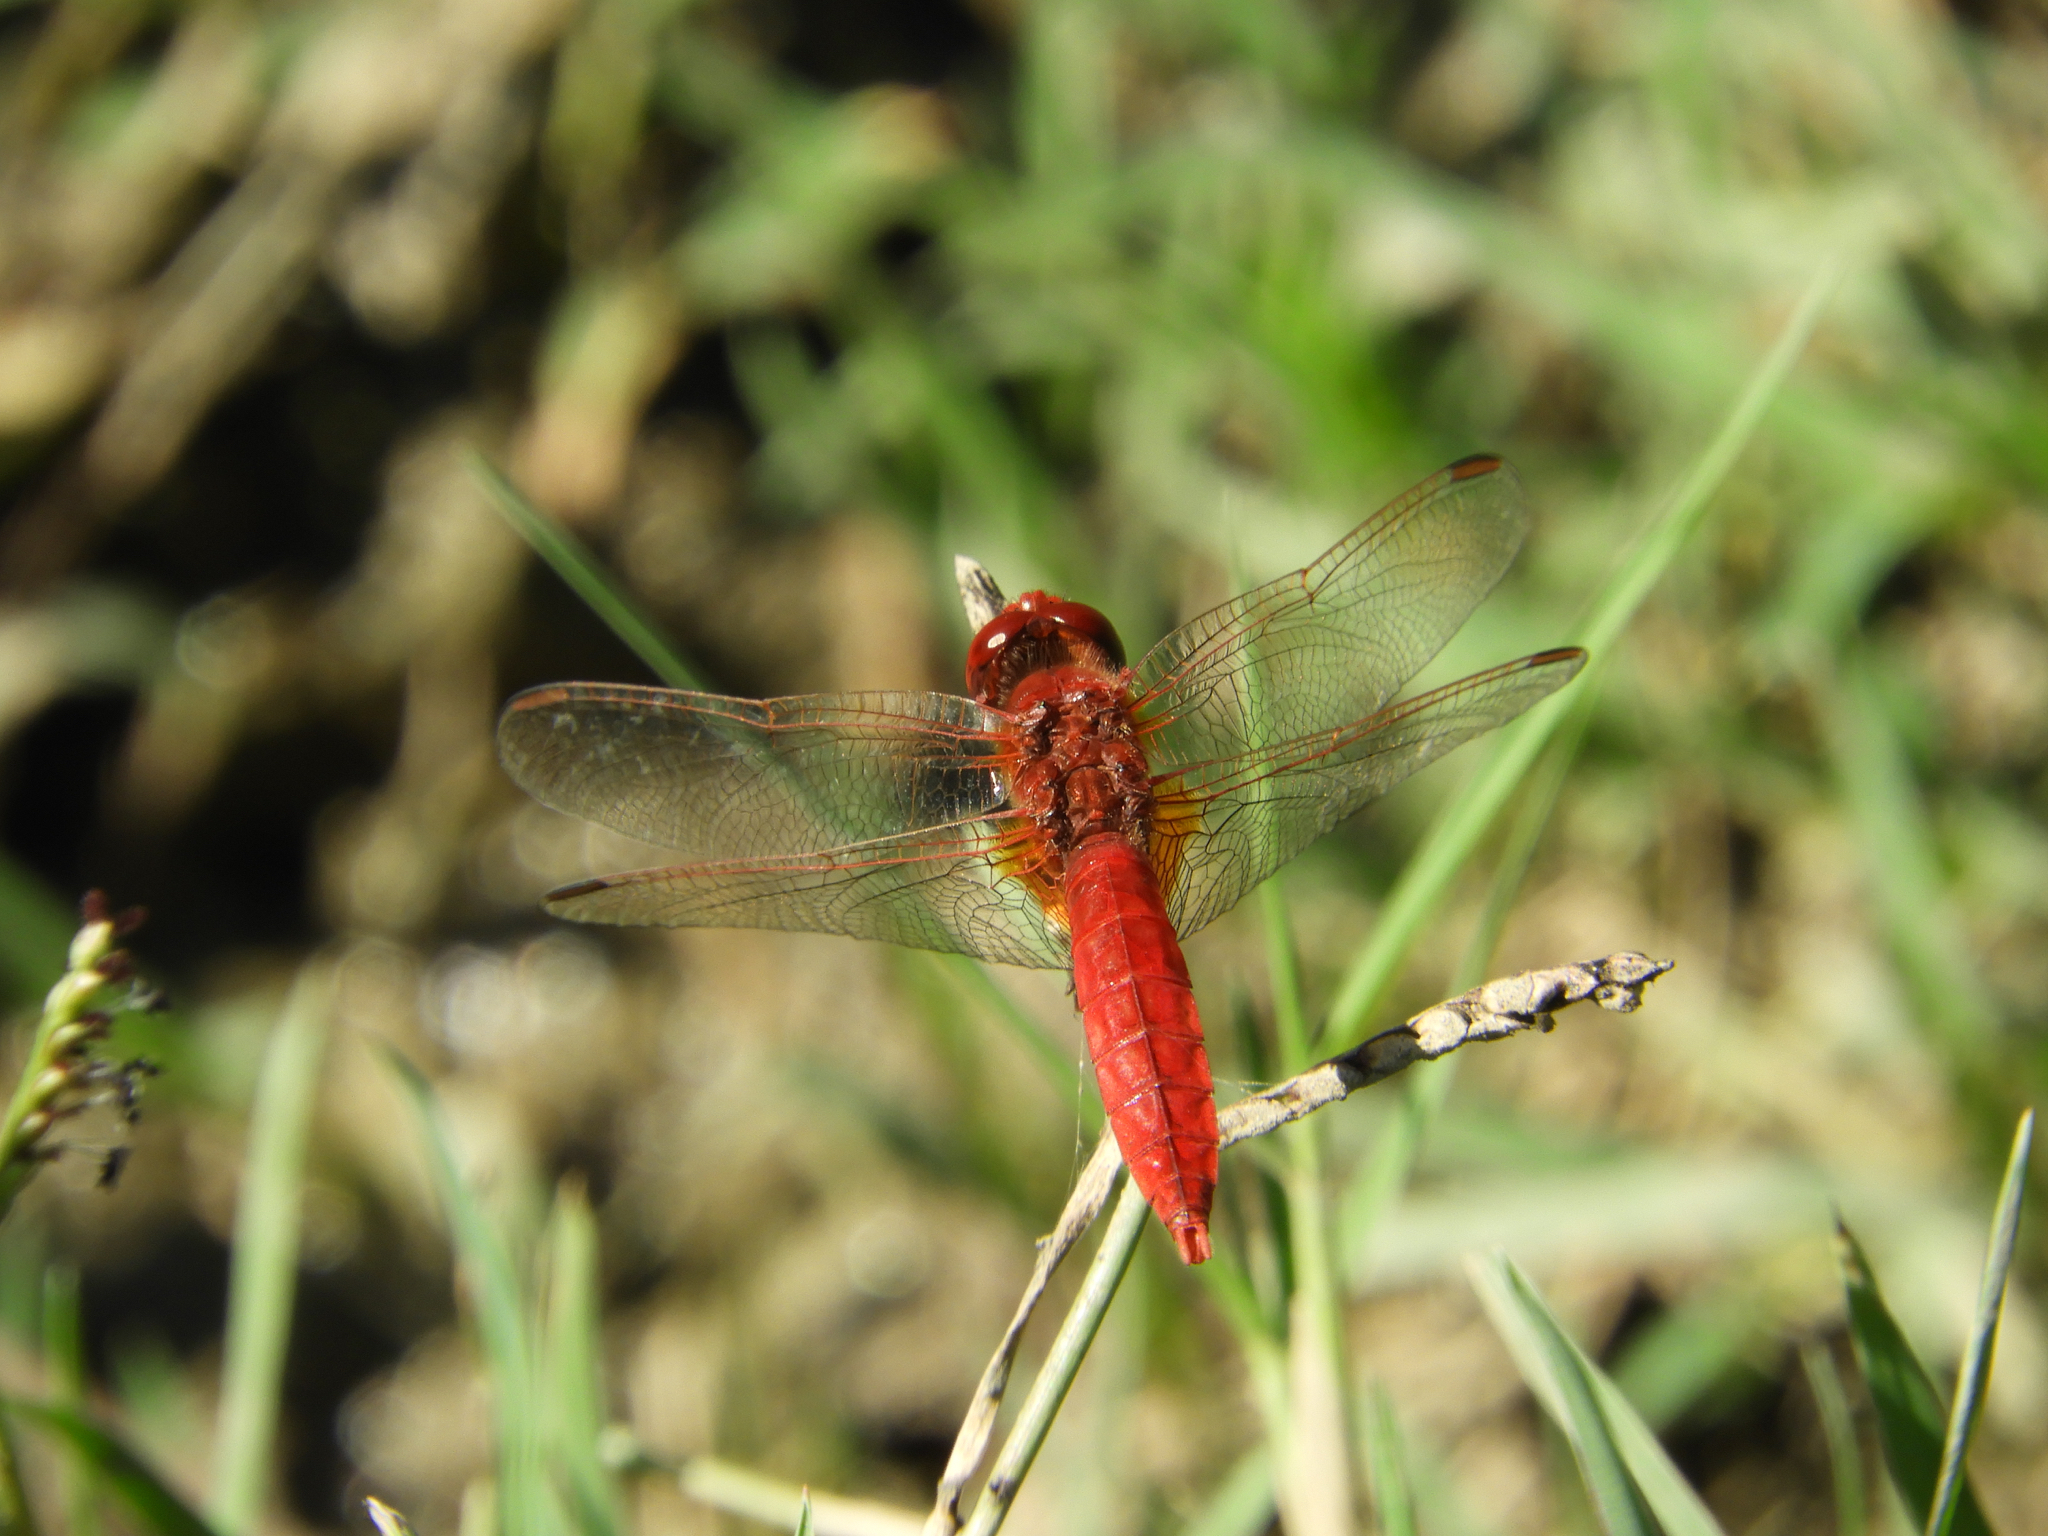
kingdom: Animalia
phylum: Arthropoda
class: Insecta
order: Odonata
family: Libellulidae
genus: Crocothemis
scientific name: Crocothemis erythraea
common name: Scarlet dragonfly
